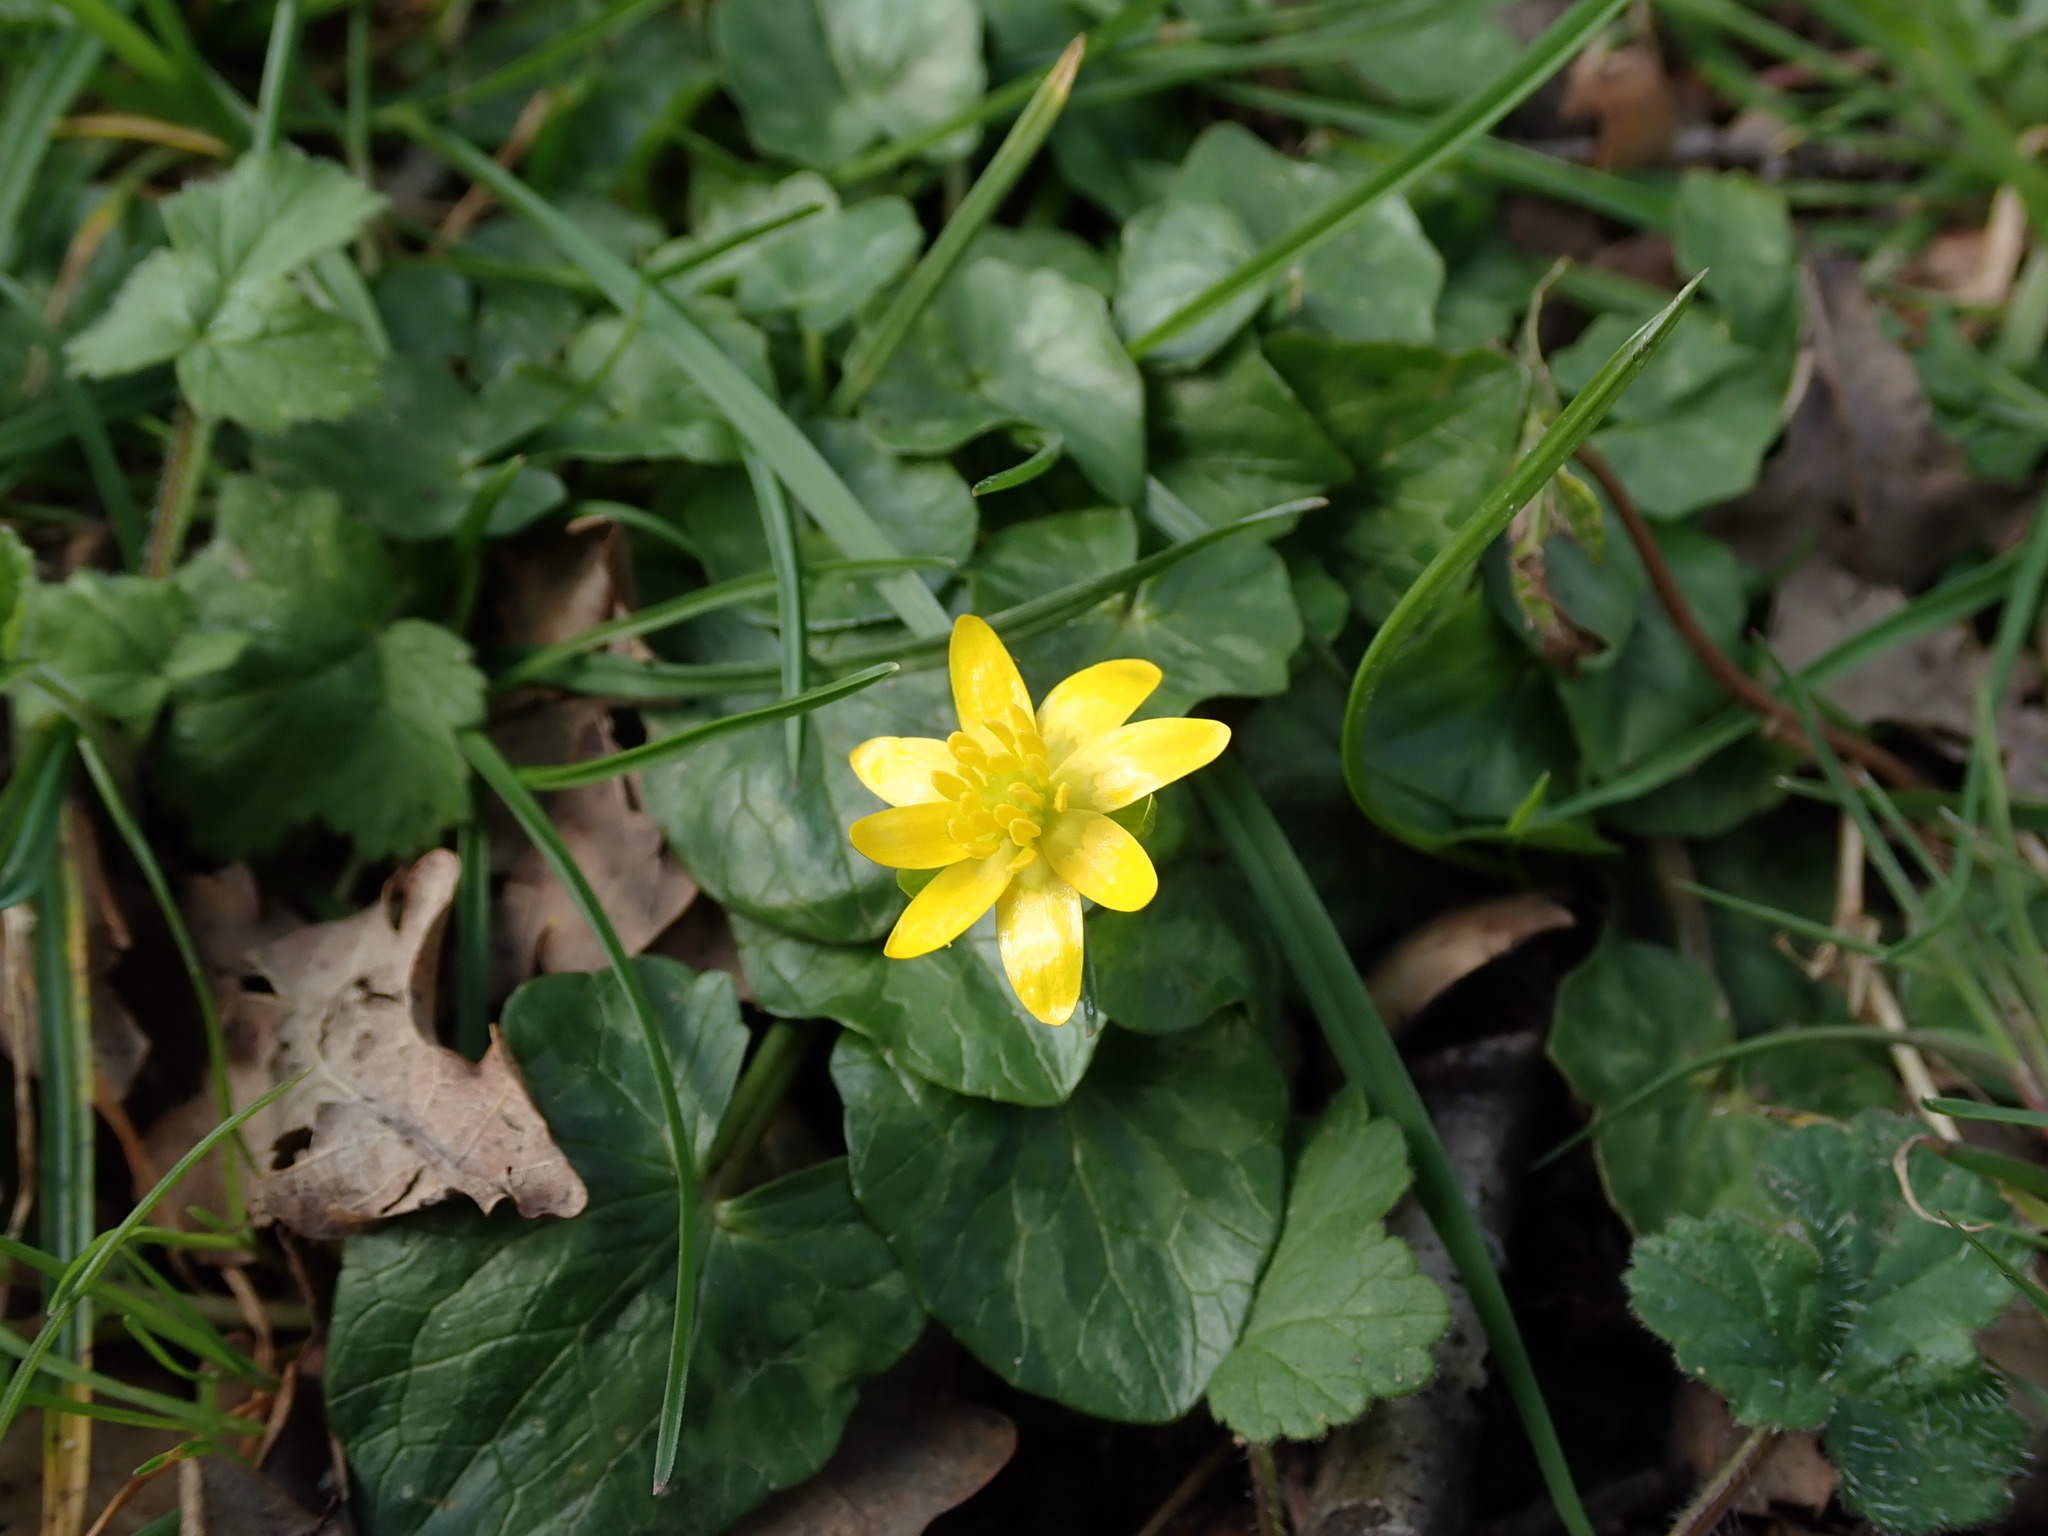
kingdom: Plantae
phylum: Tracheophyta
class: Magnoliopsida
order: Ranunculales
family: Ranunculaceae
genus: Ficaria
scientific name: Ficaria verna
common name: Lesser celandine
